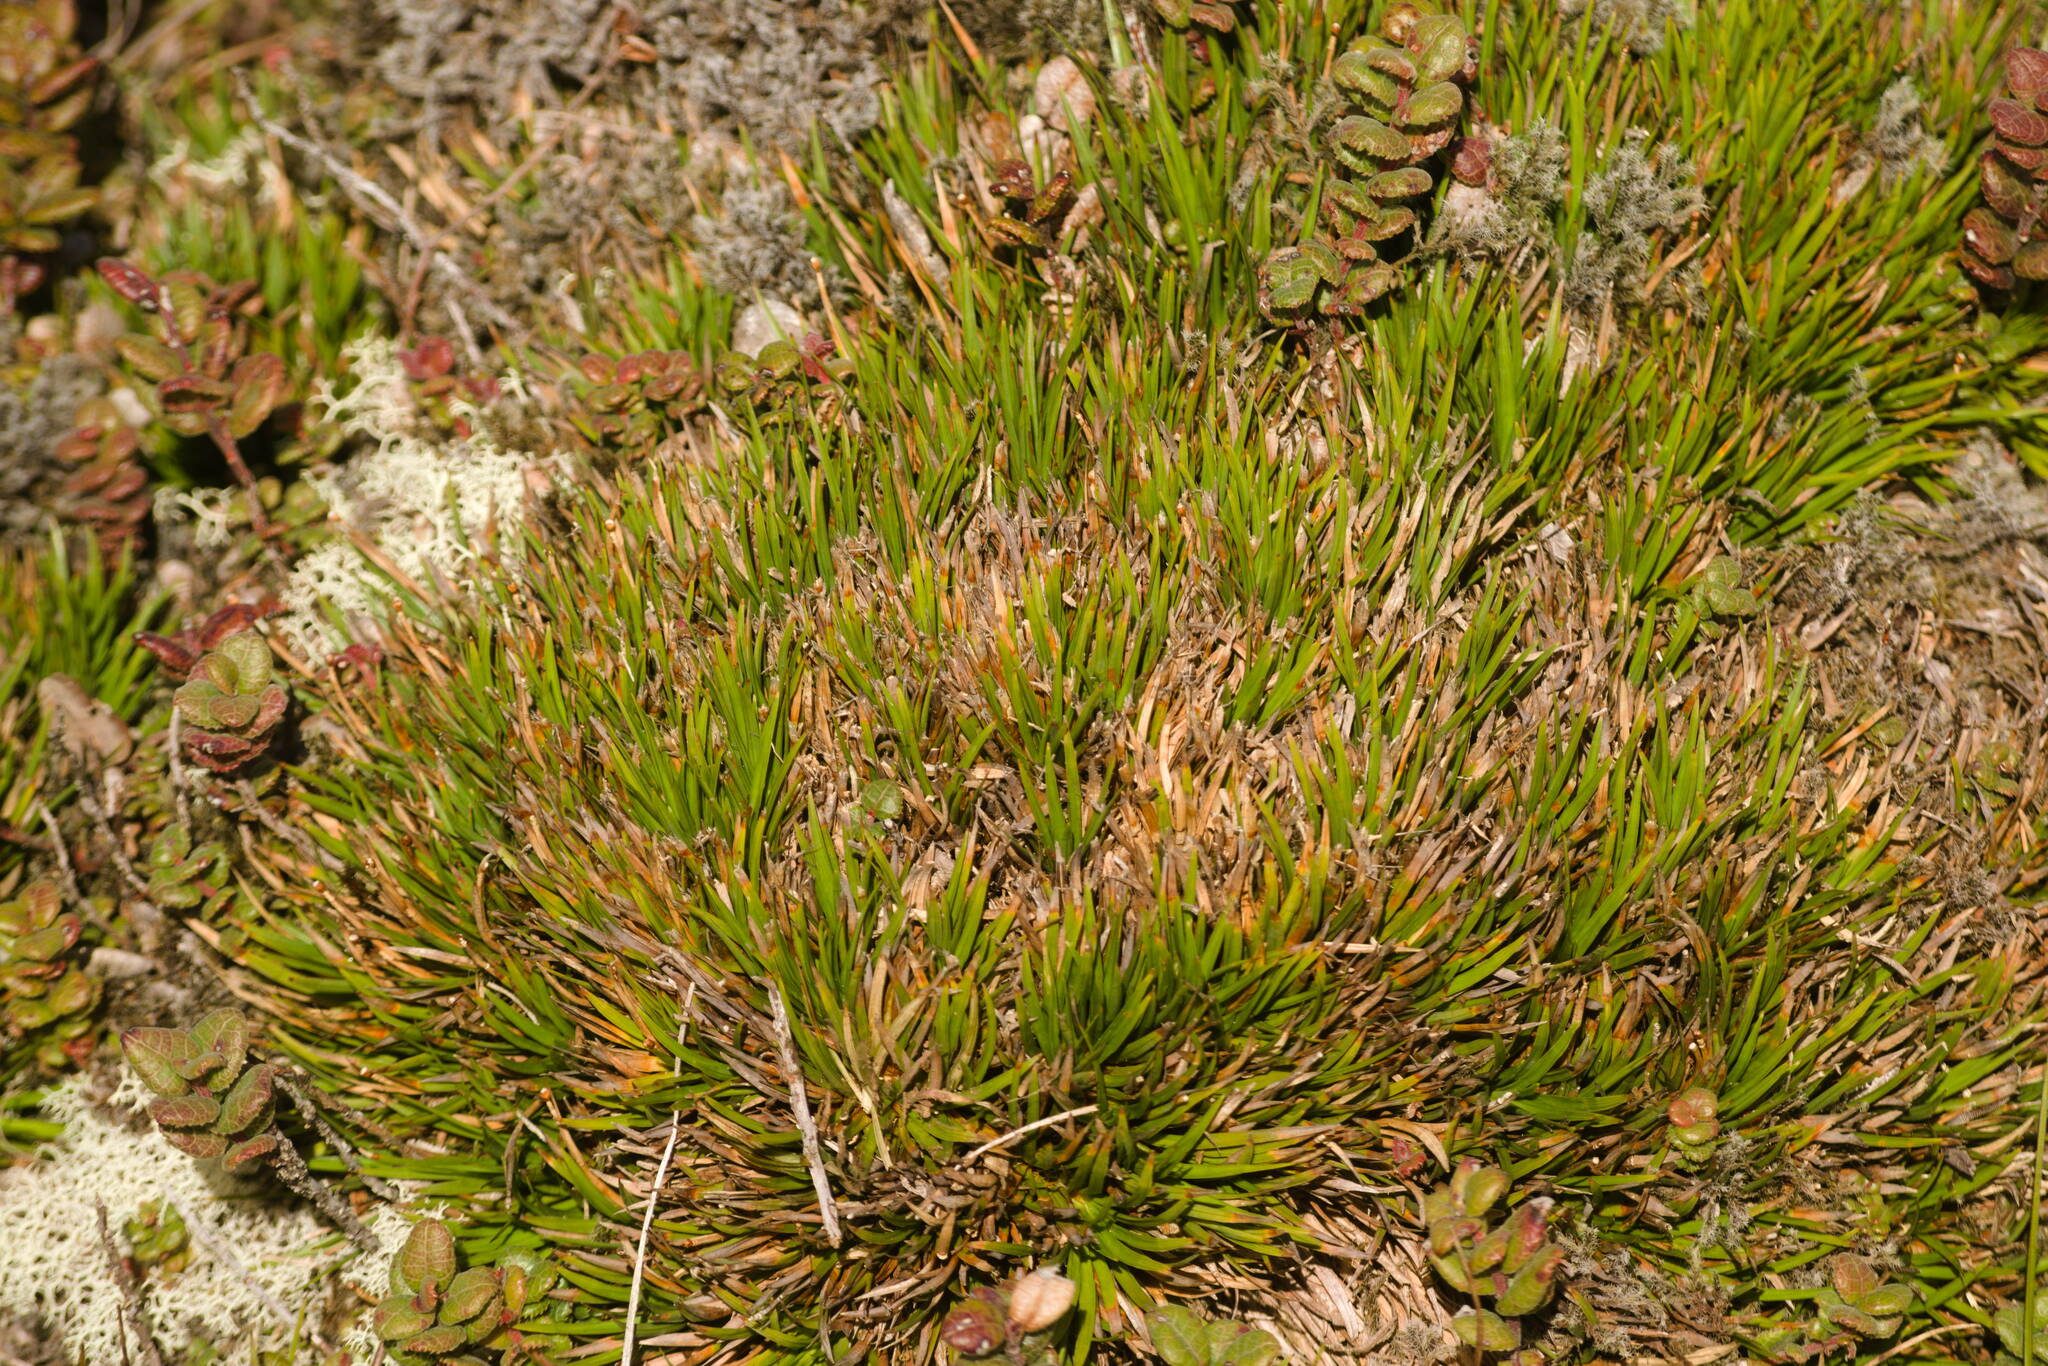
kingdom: Plantae
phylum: Tracheophyta
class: Liliopsida
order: Poales
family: Cyperaceae
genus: Oreobolus
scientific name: Oreobolus furcatus
